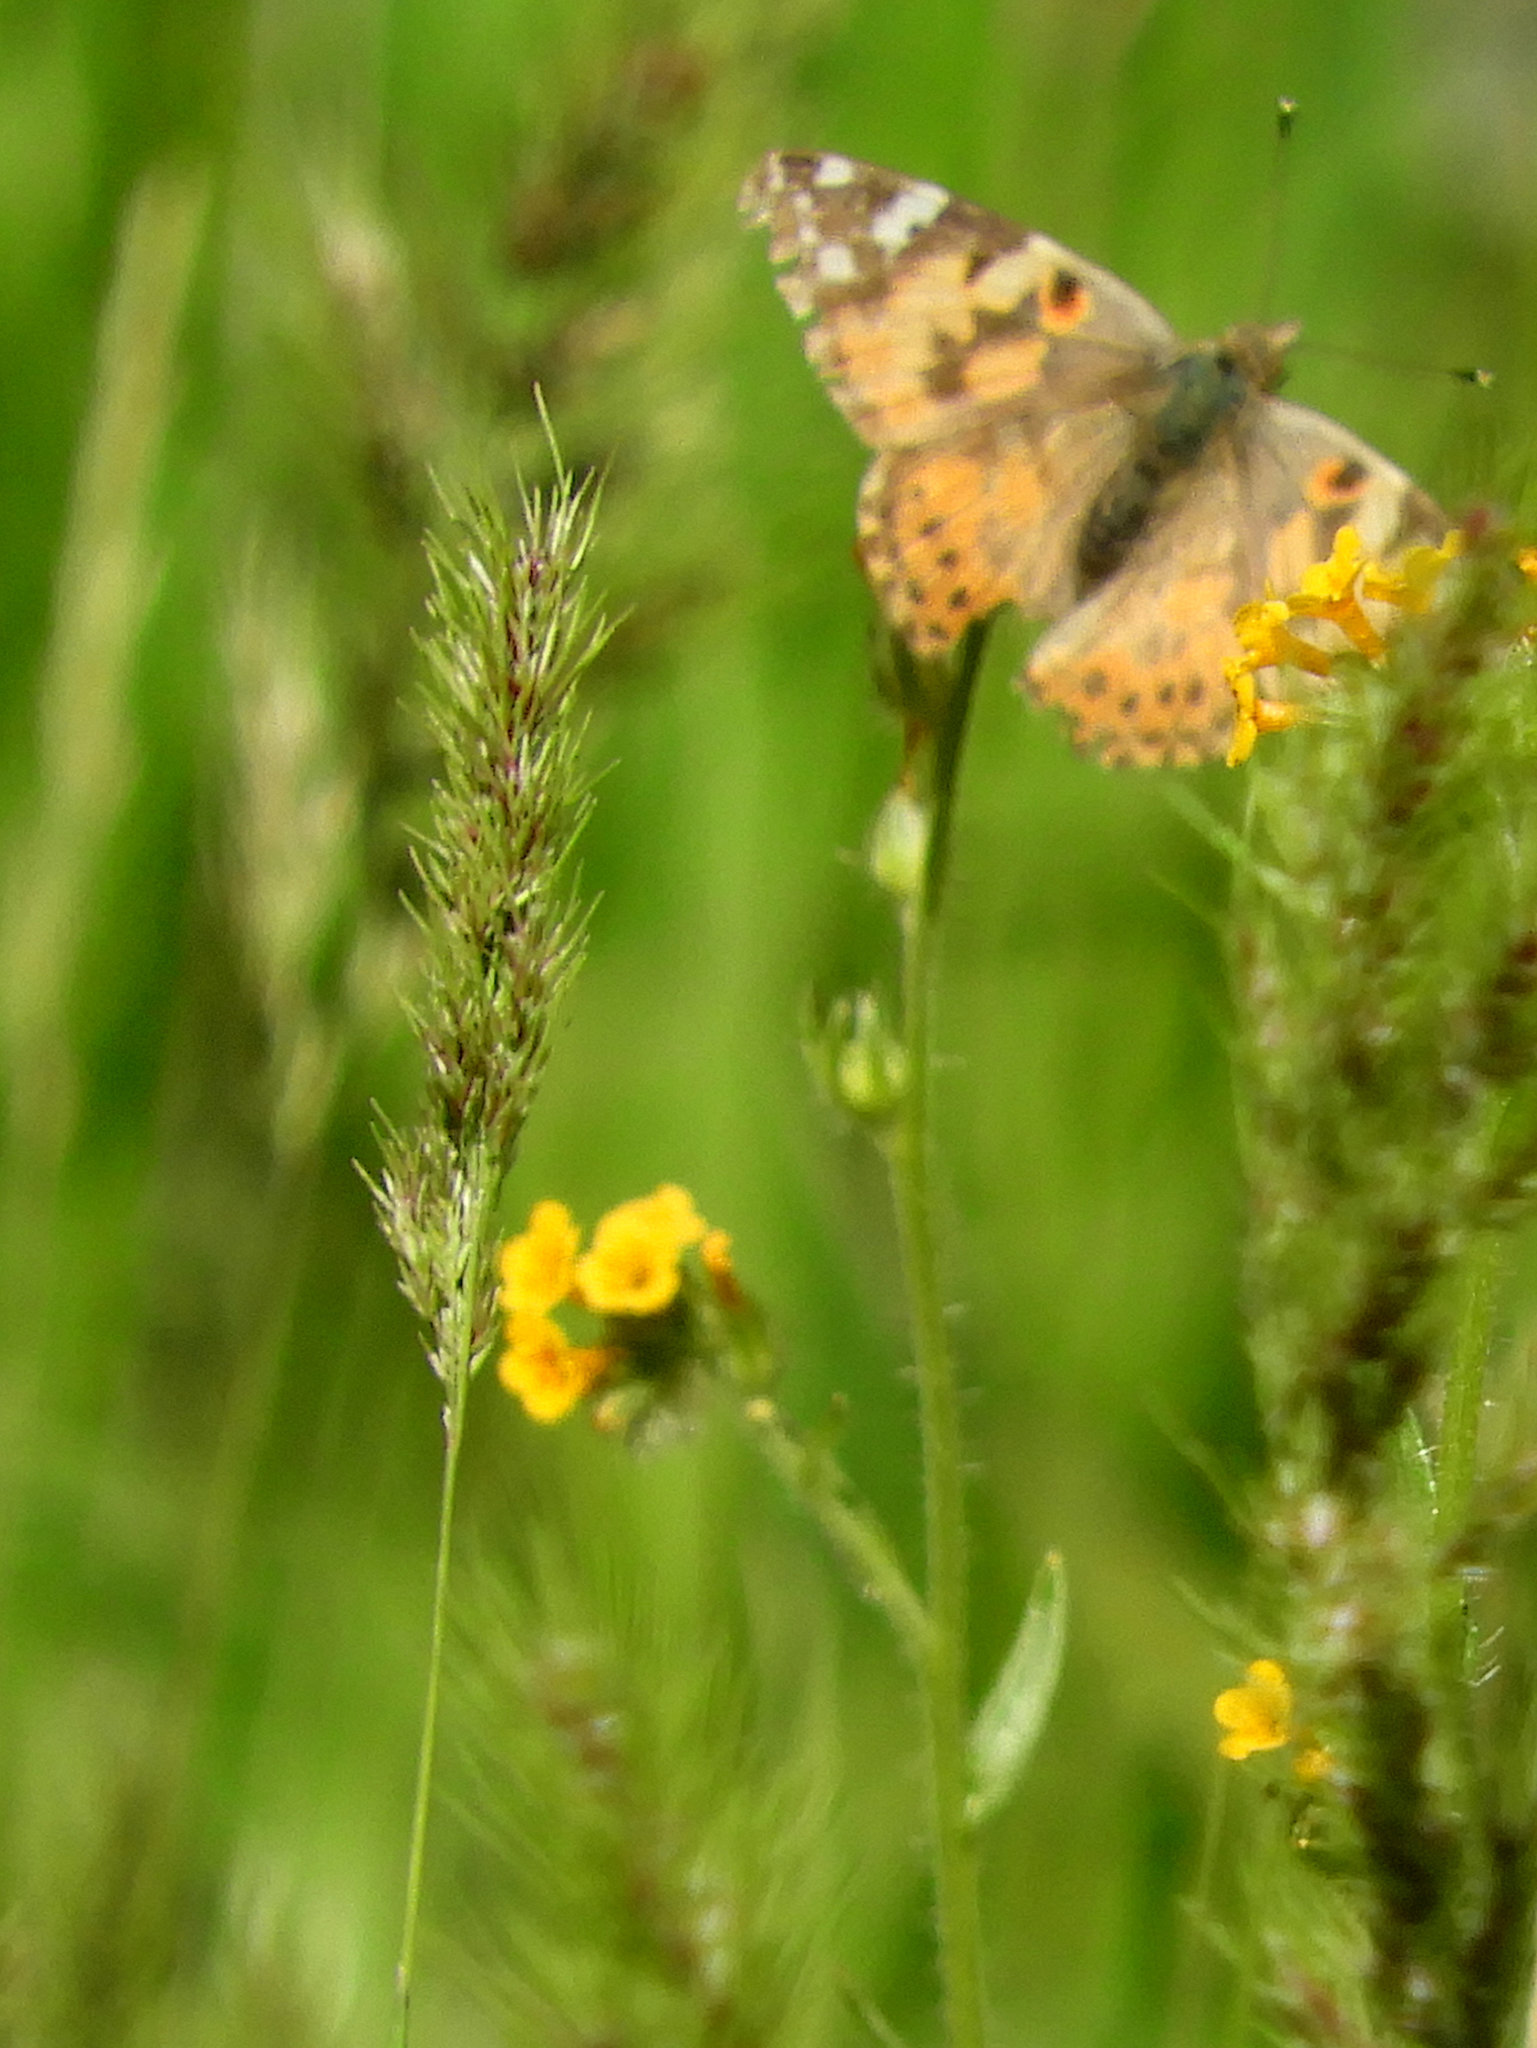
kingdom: Animalia
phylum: Arthropoda
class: Insecta
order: Lepidoptera
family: Nymphalidae
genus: Vanessa
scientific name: Vanessa cardui
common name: Painted lady
